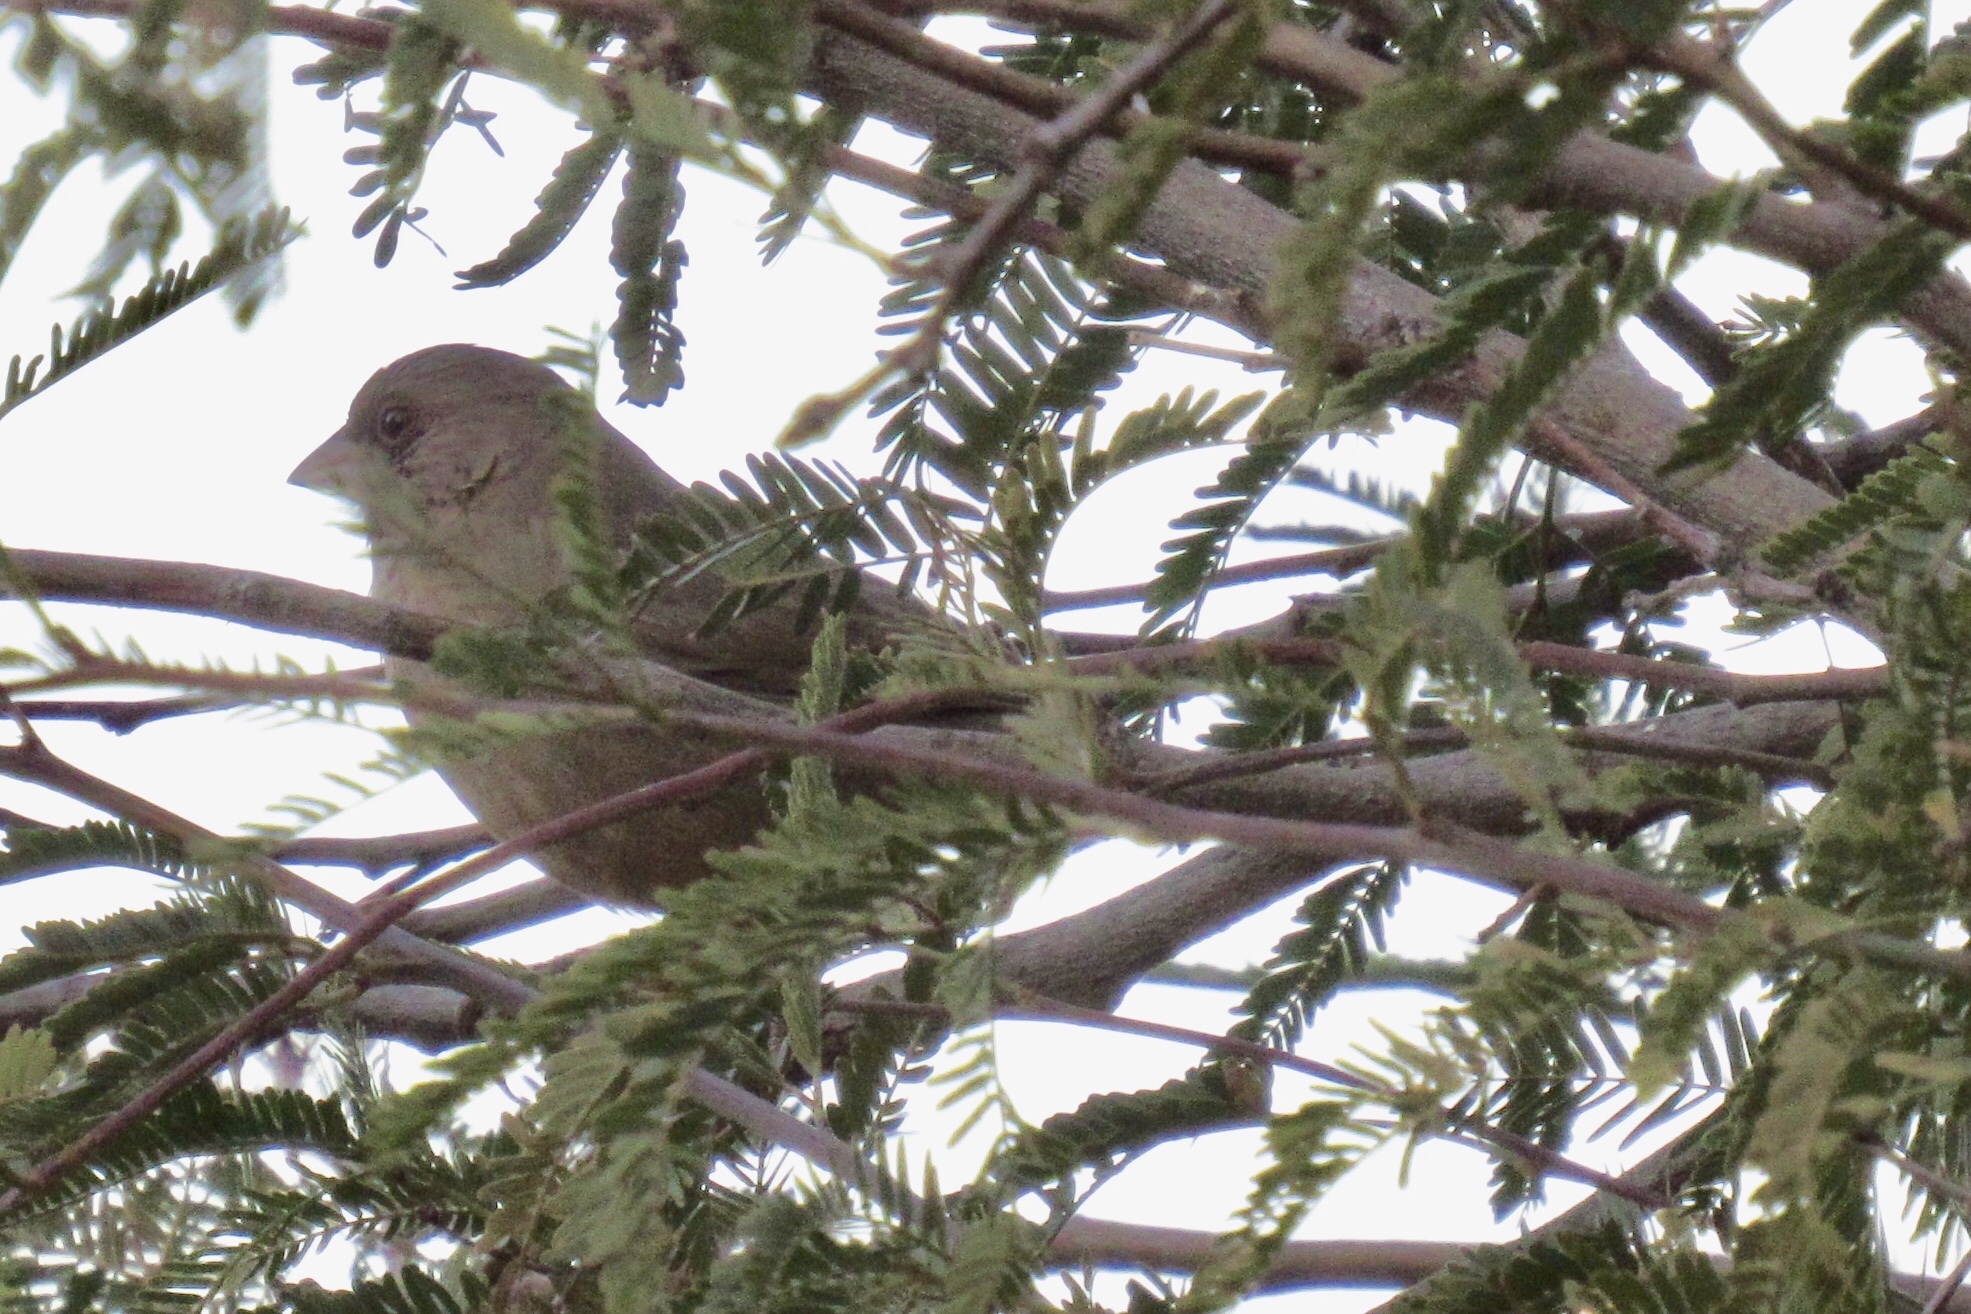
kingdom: Animalia
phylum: Chordata
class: Aves
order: Passeriformes
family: Passerellidae
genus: Melozone
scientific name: Melozone aberti
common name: Abert's towhee
